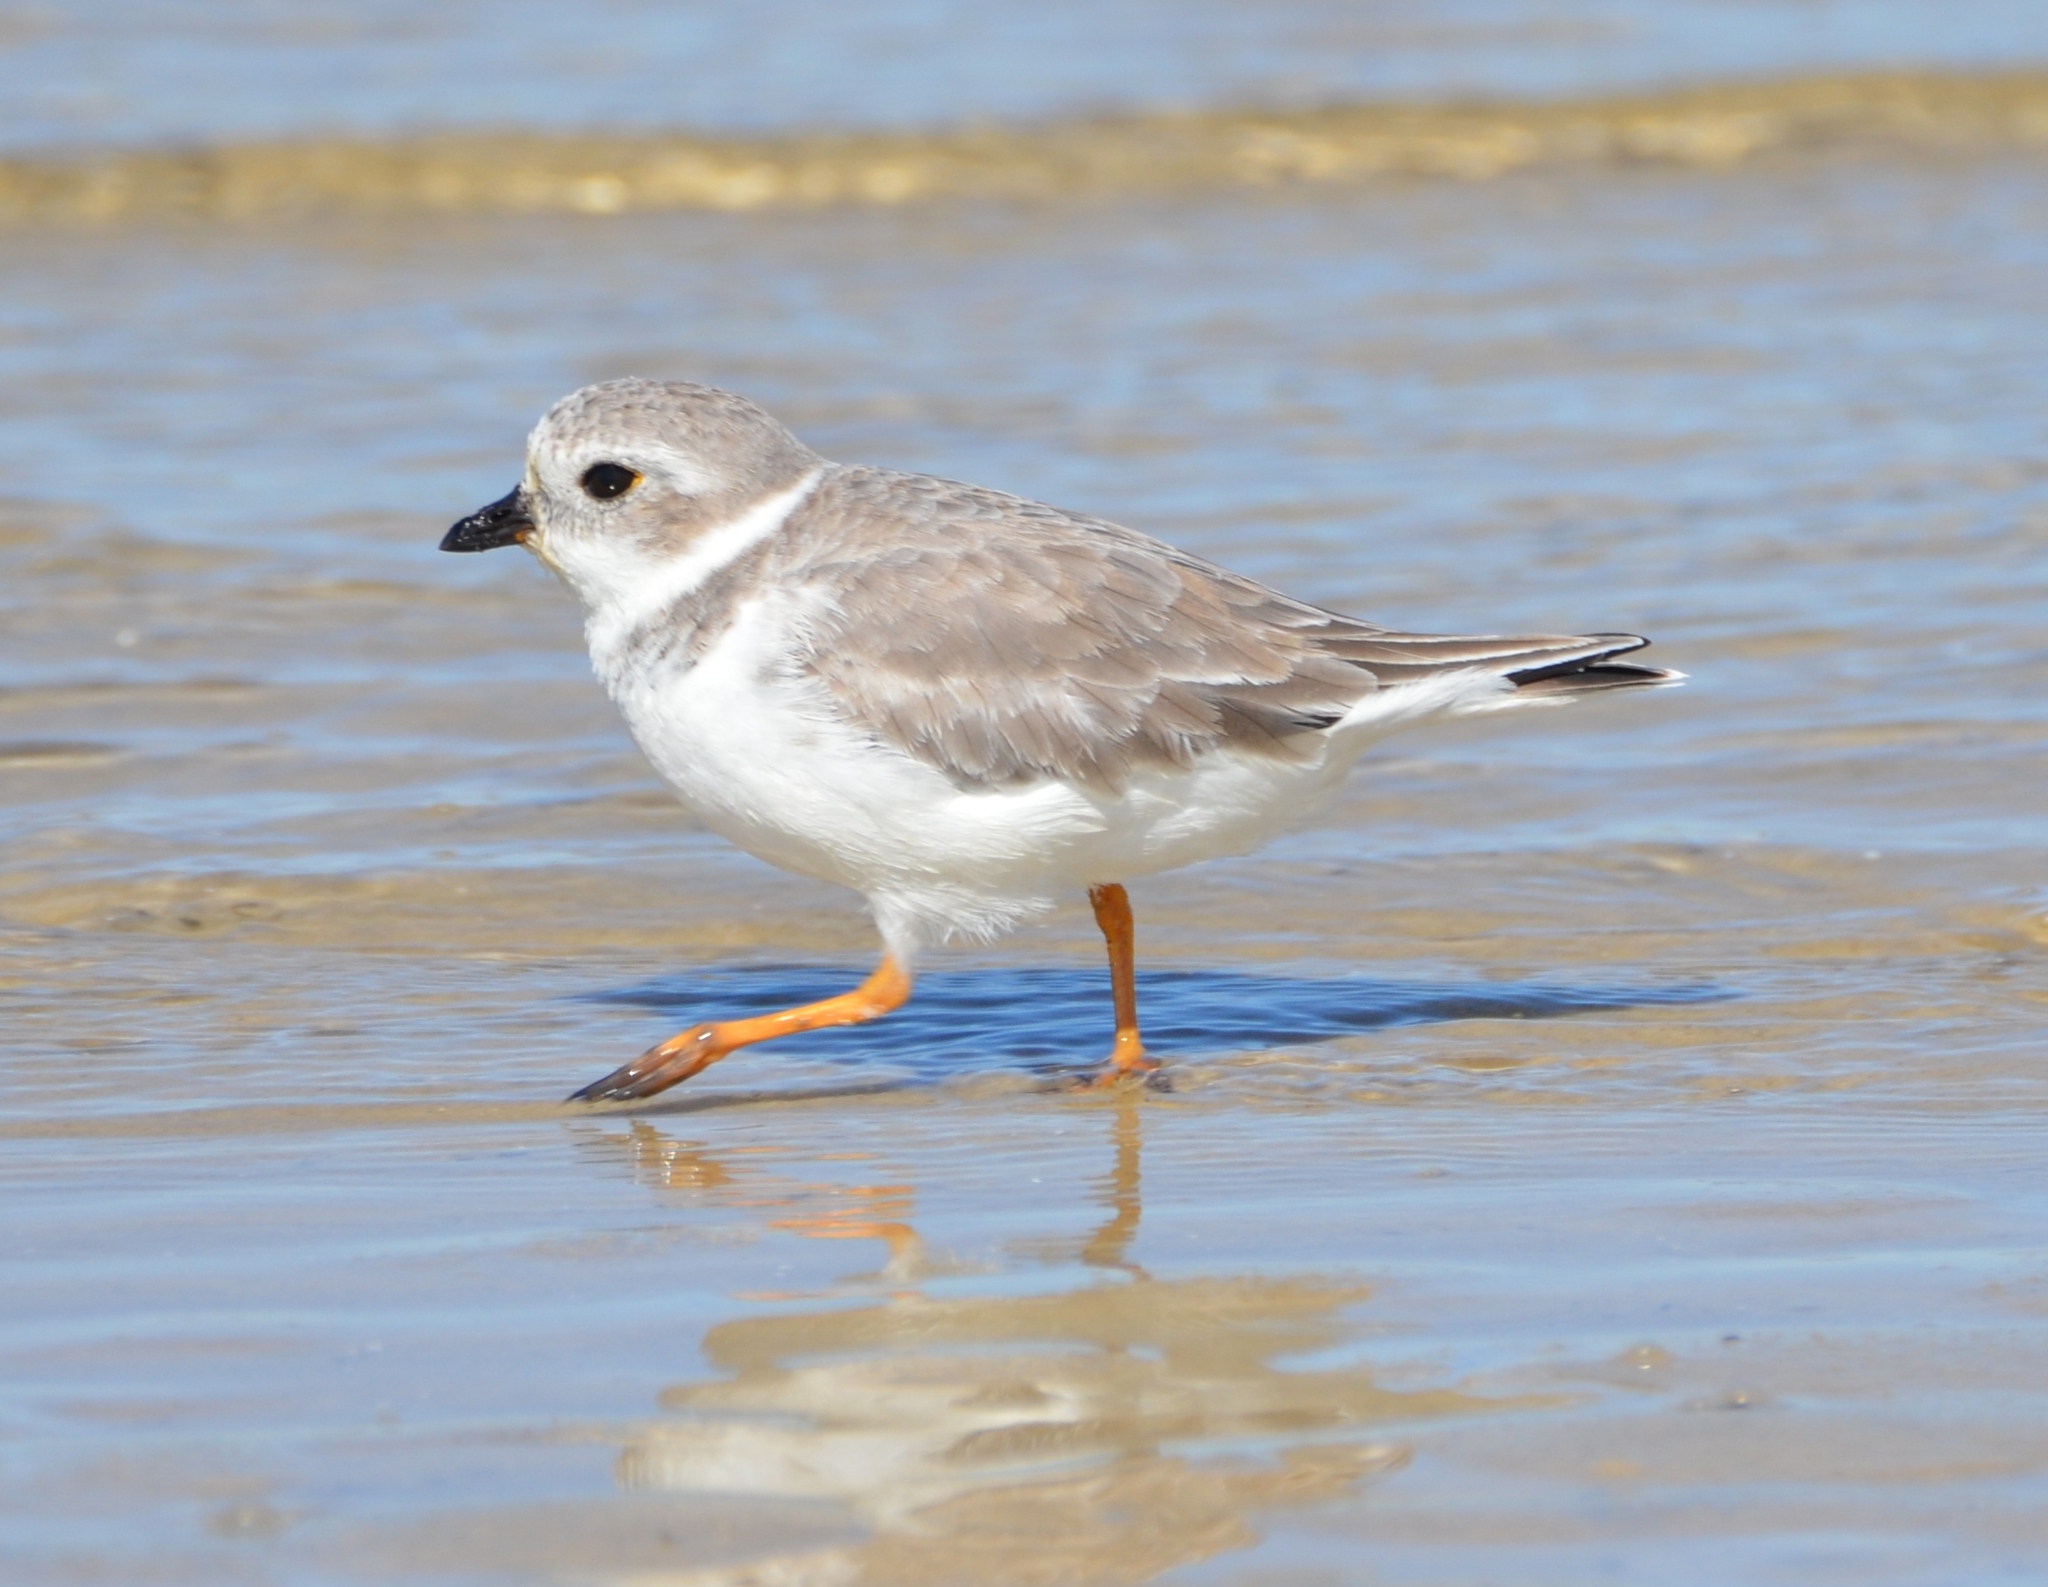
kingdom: Animalia
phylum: Chordata
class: Aves
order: Charadriiformes
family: Charadriidae
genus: Charadrius
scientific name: Charadrius melodus
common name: Piping plover
